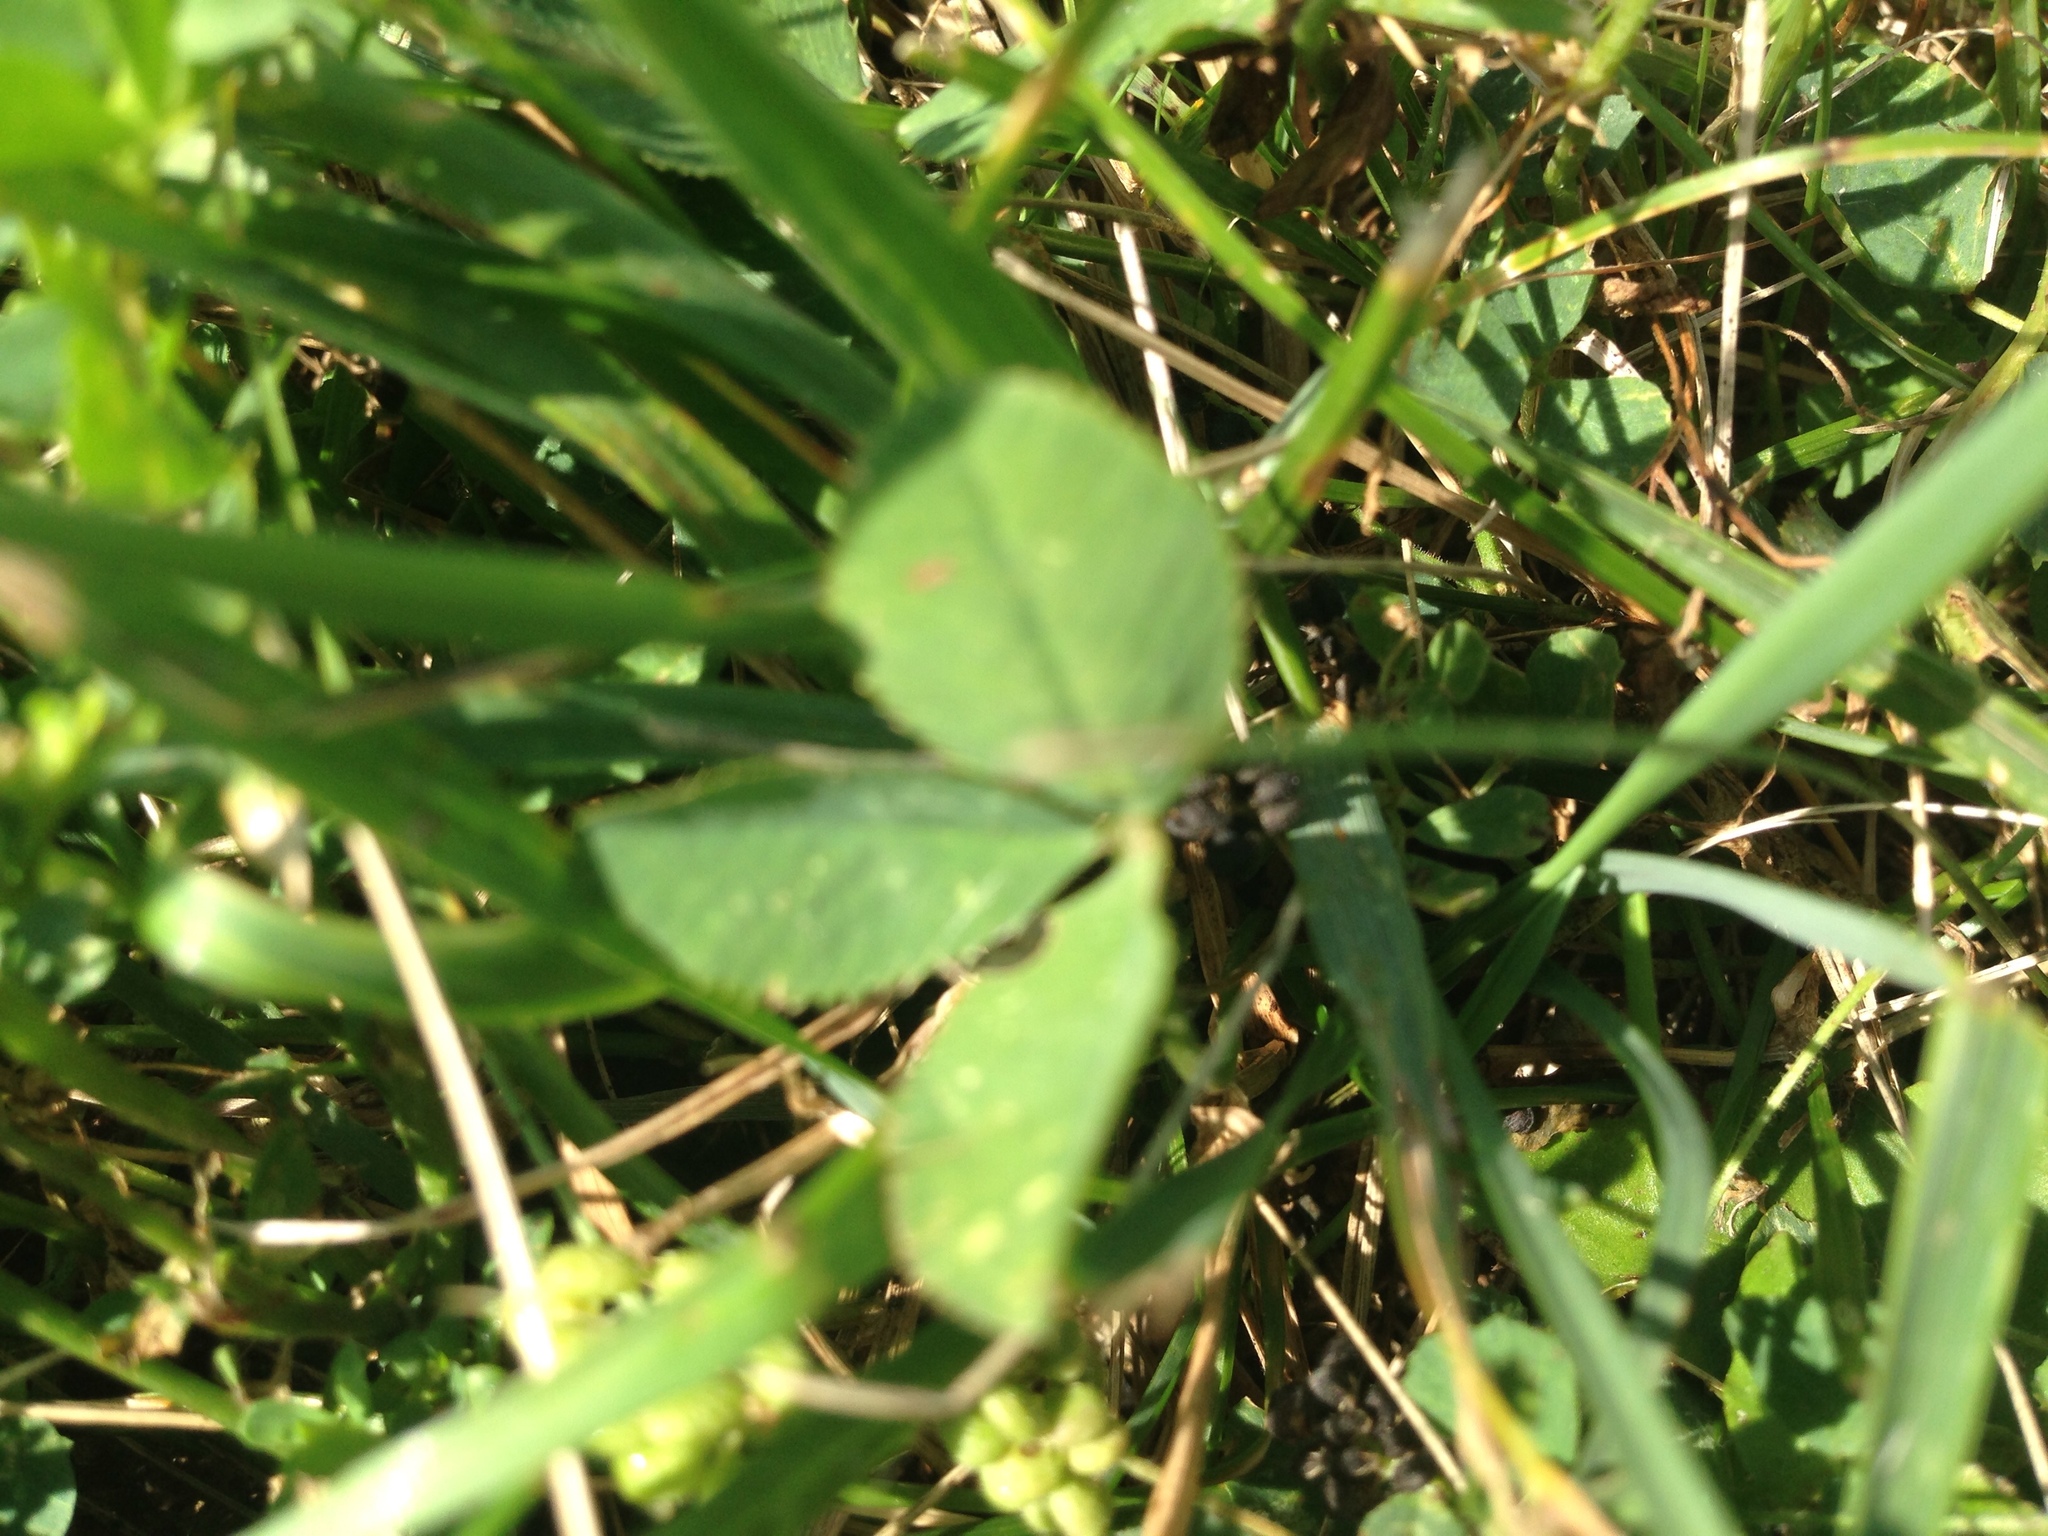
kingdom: Plantae
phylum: Tracheophyta
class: Magnoliopsida
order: Fabales
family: Fabaceae
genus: Trifolium
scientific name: Trifolium repens
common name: White clover
